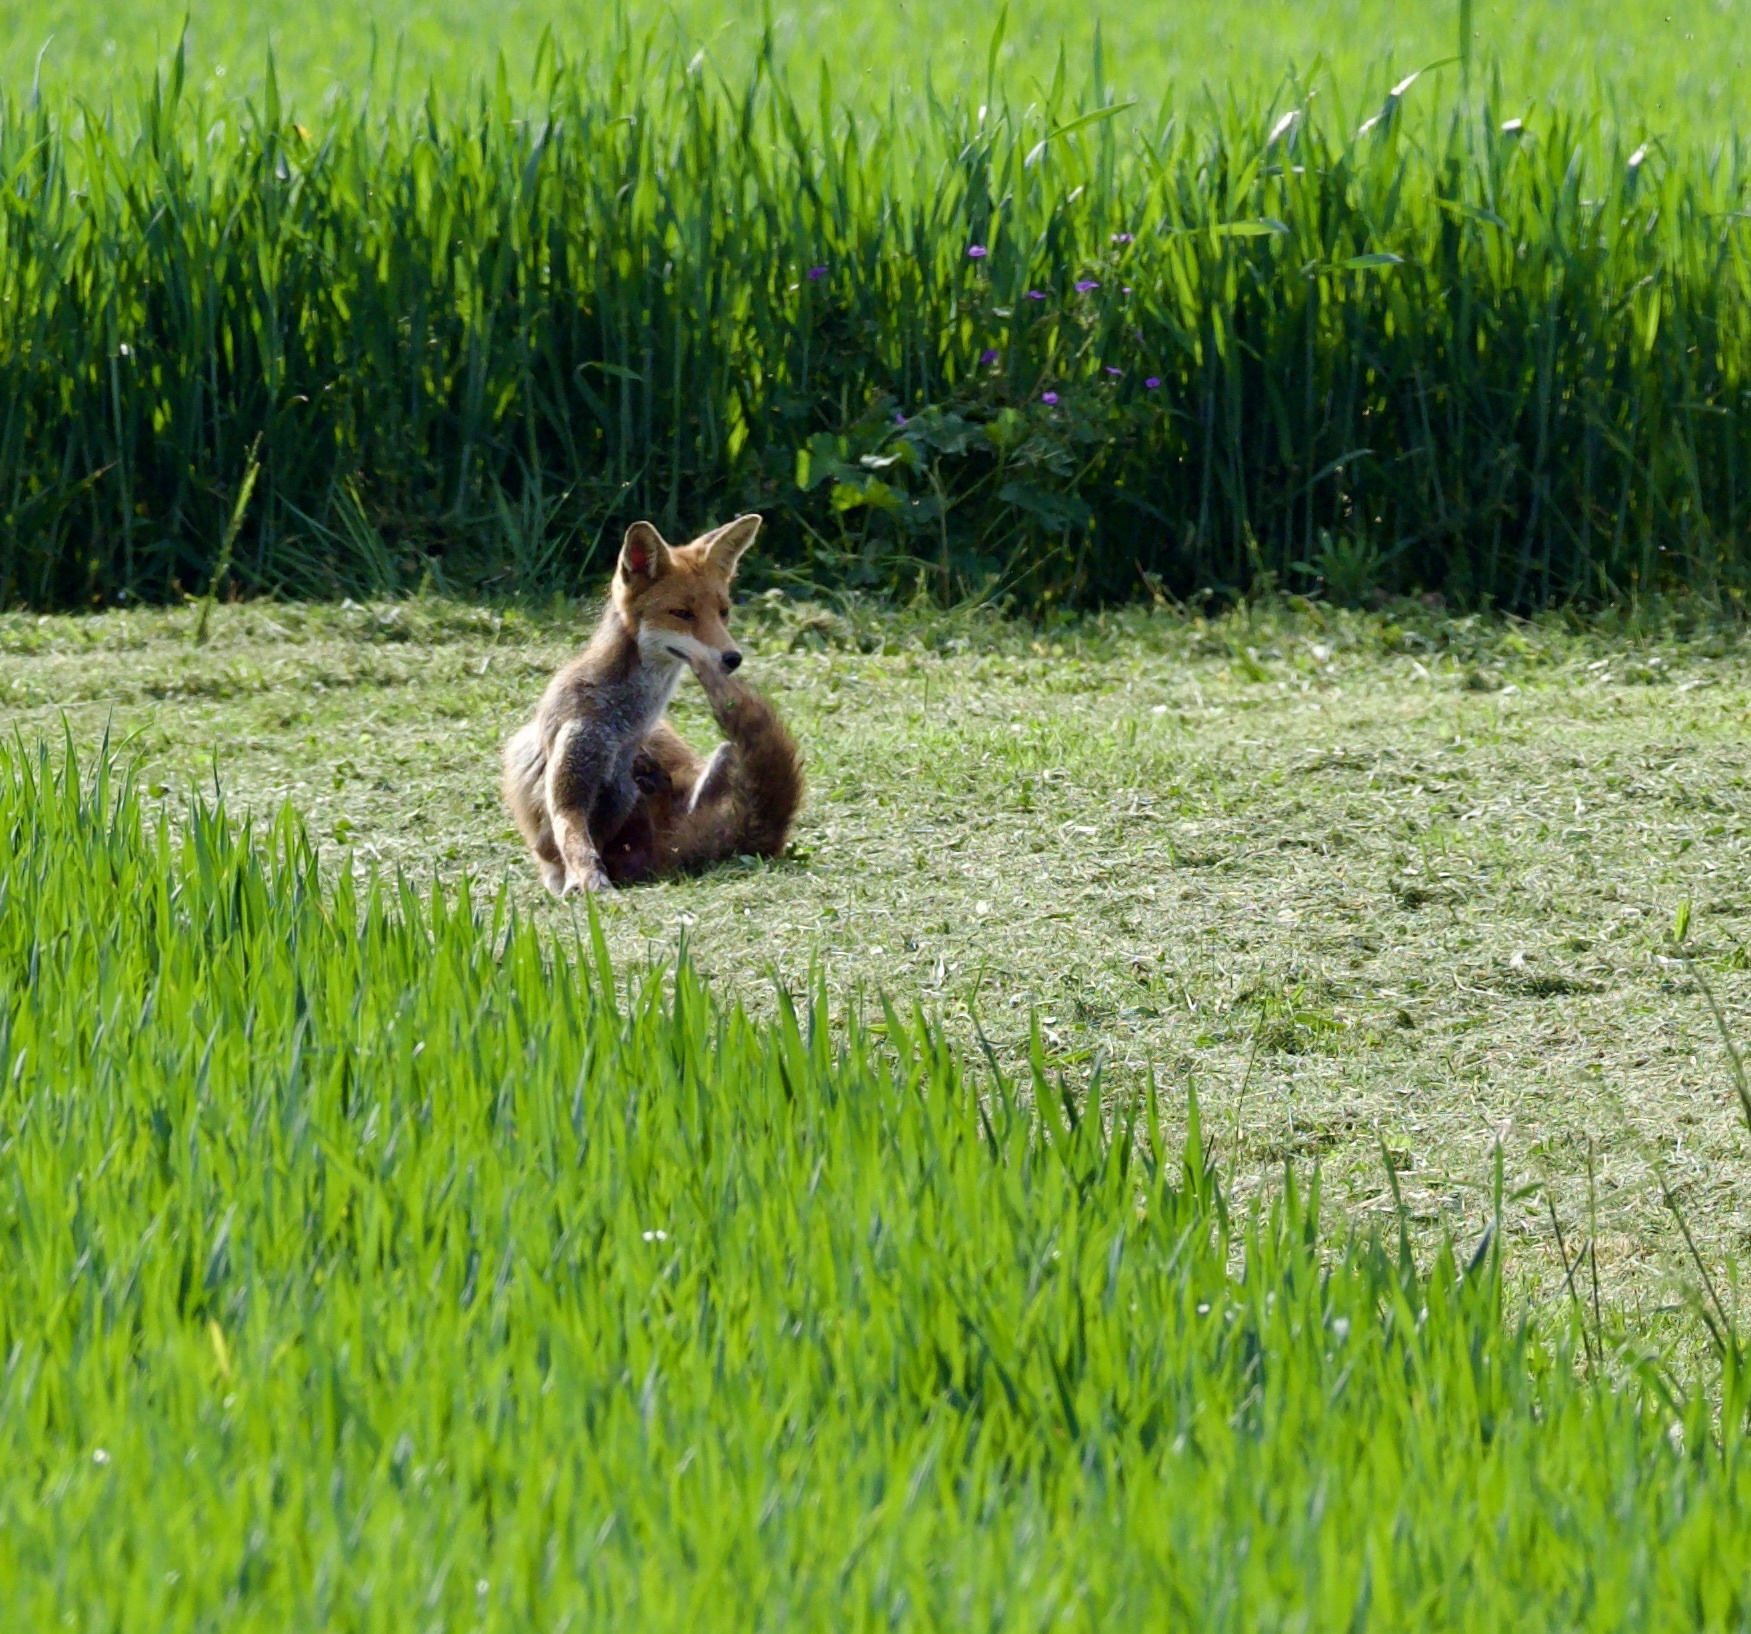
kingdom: Animalia
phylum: Chordata
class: Mammalia
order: Carnivora
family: Canidae
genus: Vulpes
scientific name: Vulpes vulpes
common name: Red fox
